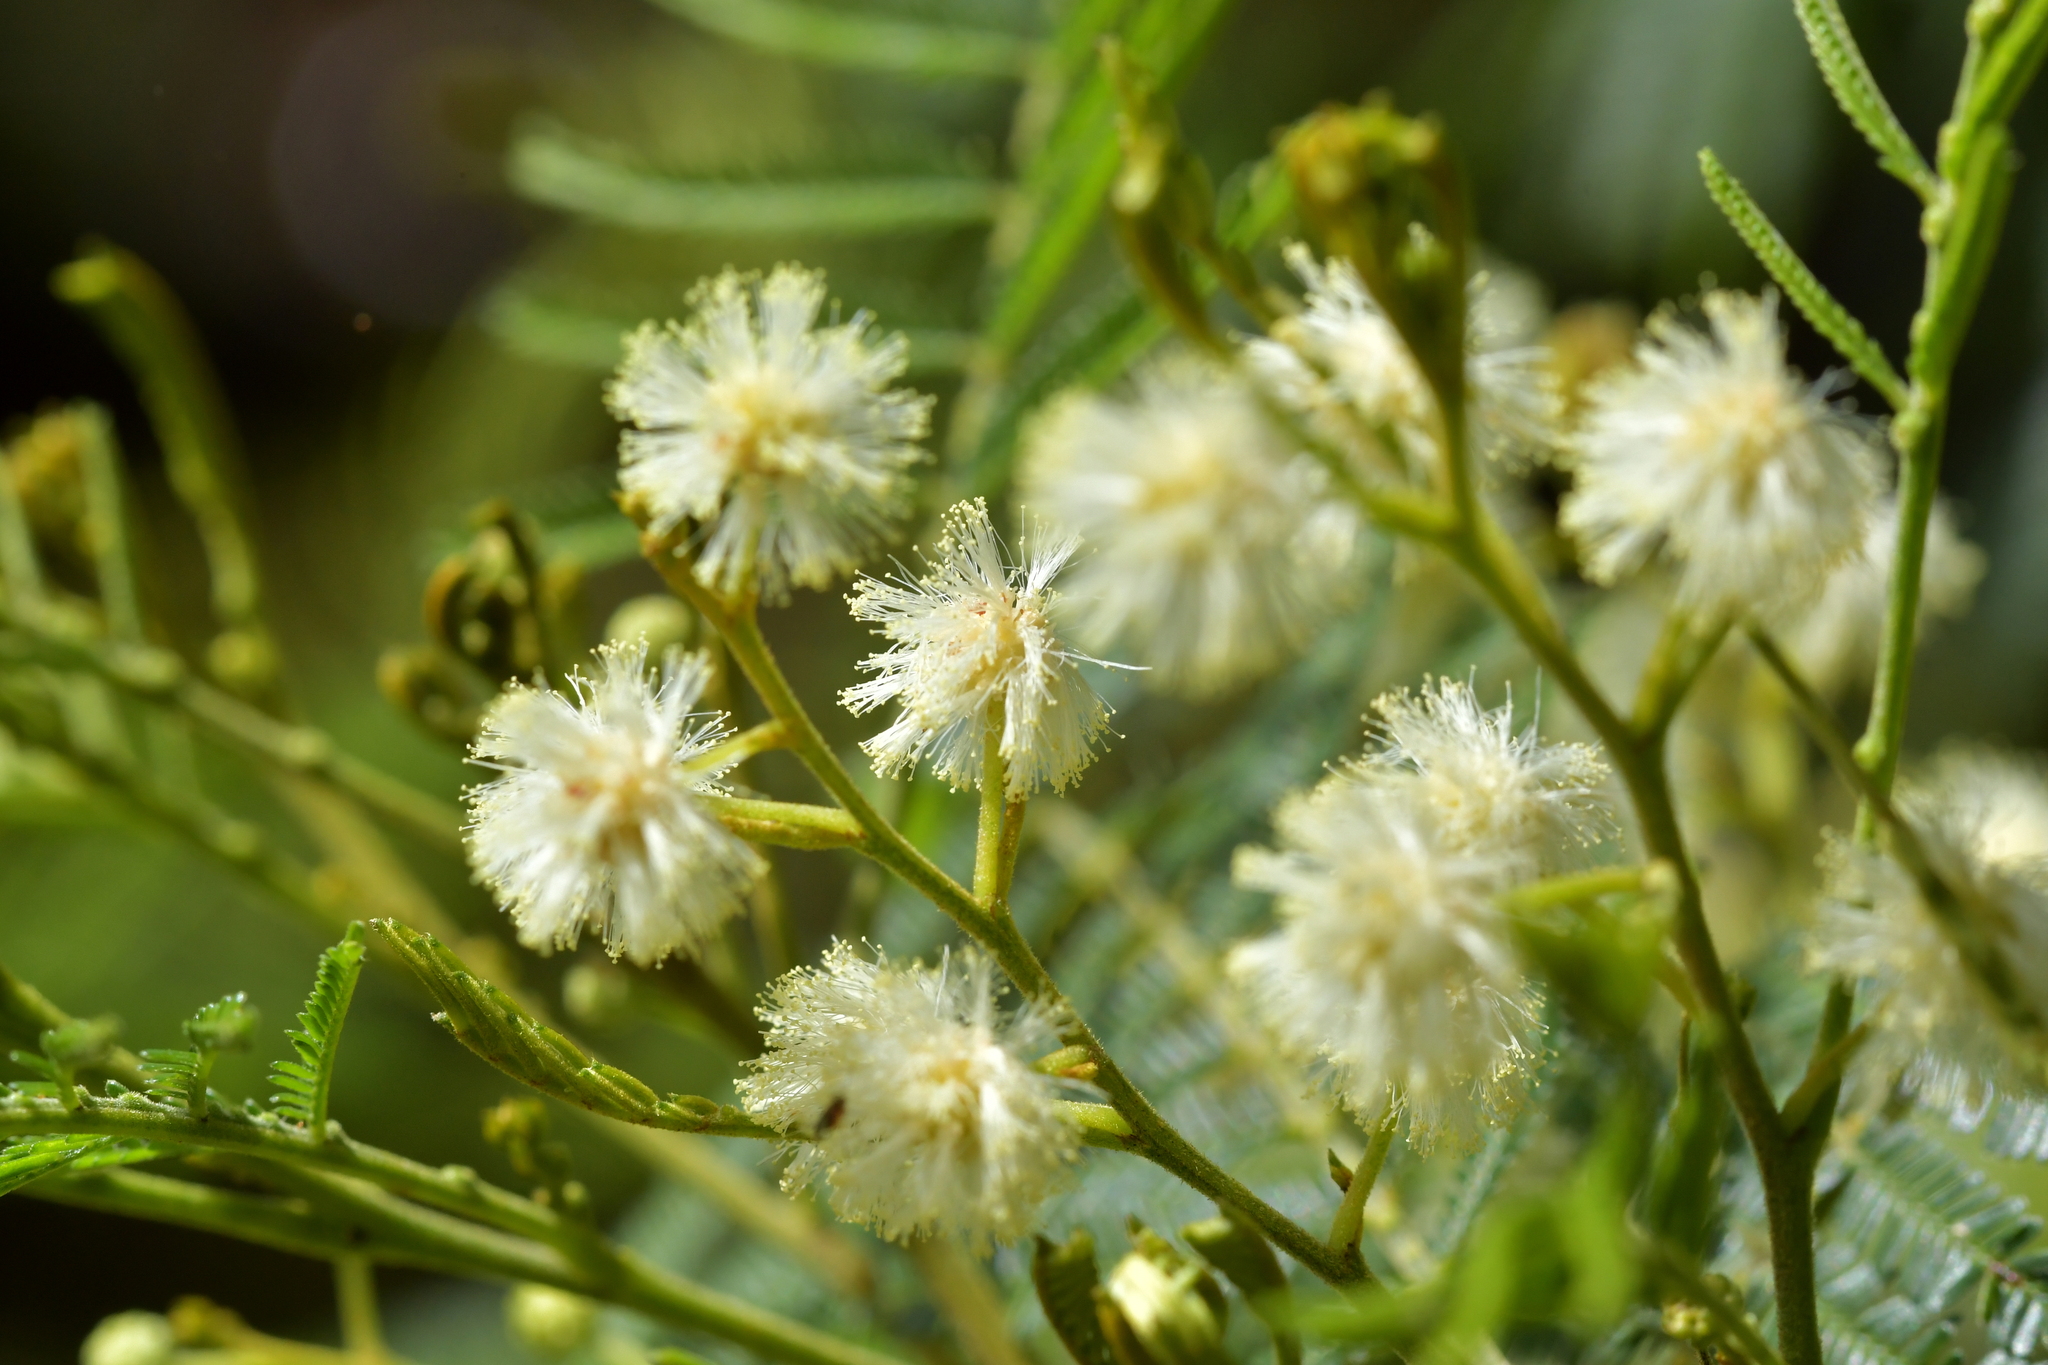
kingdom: Plantae
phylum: Tracheophyta
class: Magnoliopsida
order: Fabales
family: Fabaceae
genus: Acacia
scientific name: Acacia mearnsii
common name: Black wattle
